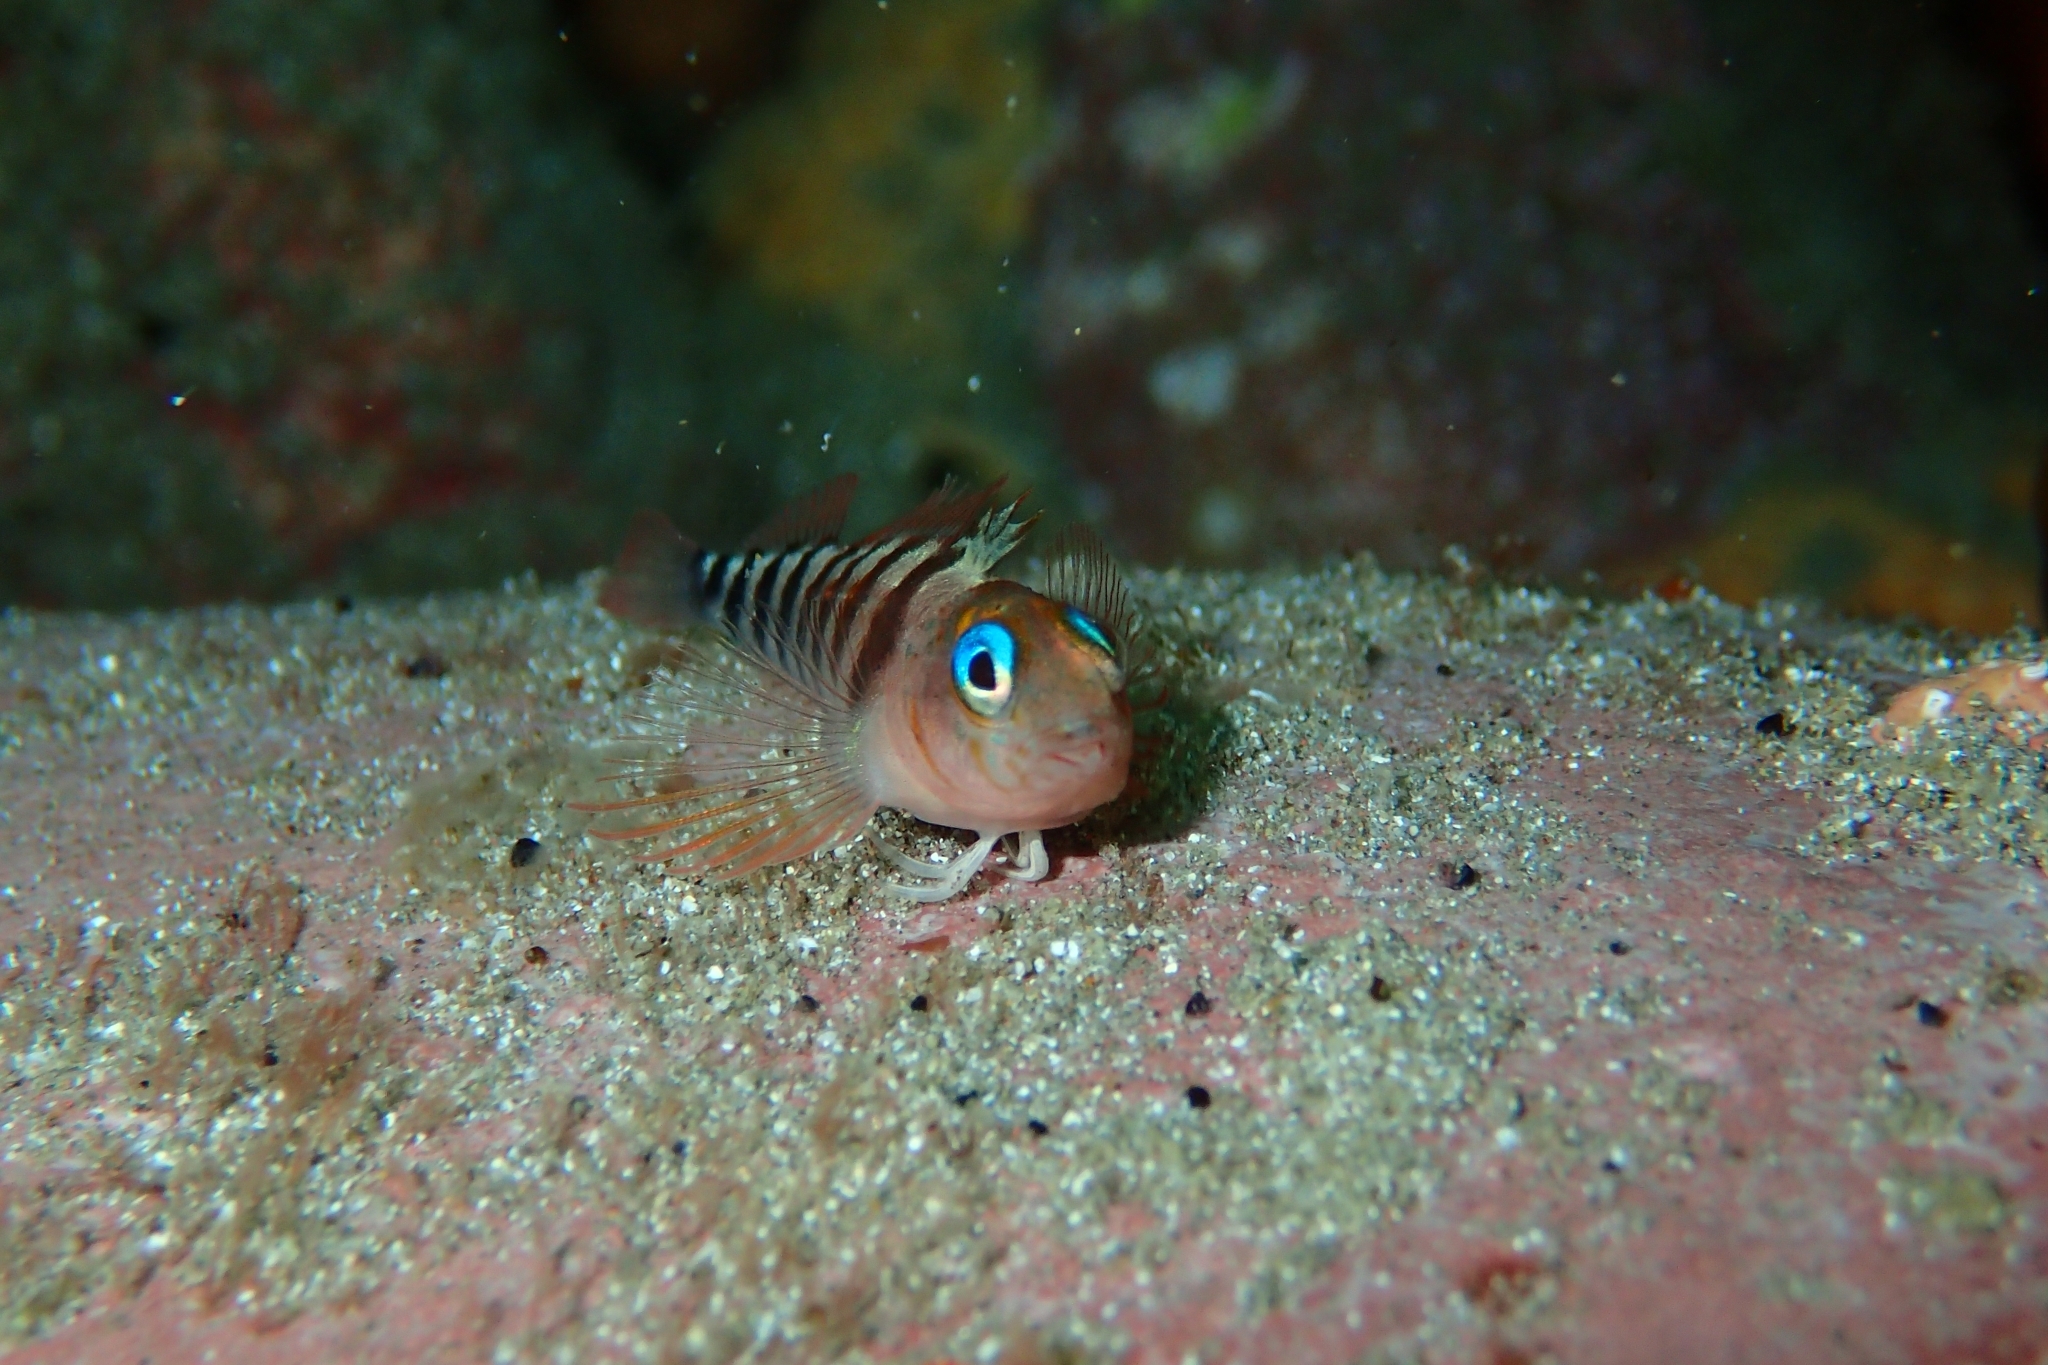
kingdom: Animalia
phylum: Chordata
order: Perciformes
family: Tripterygiidae
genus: Notoclinops
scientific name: Notoclinops segmentatus
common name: Blue-eyed triplefin
